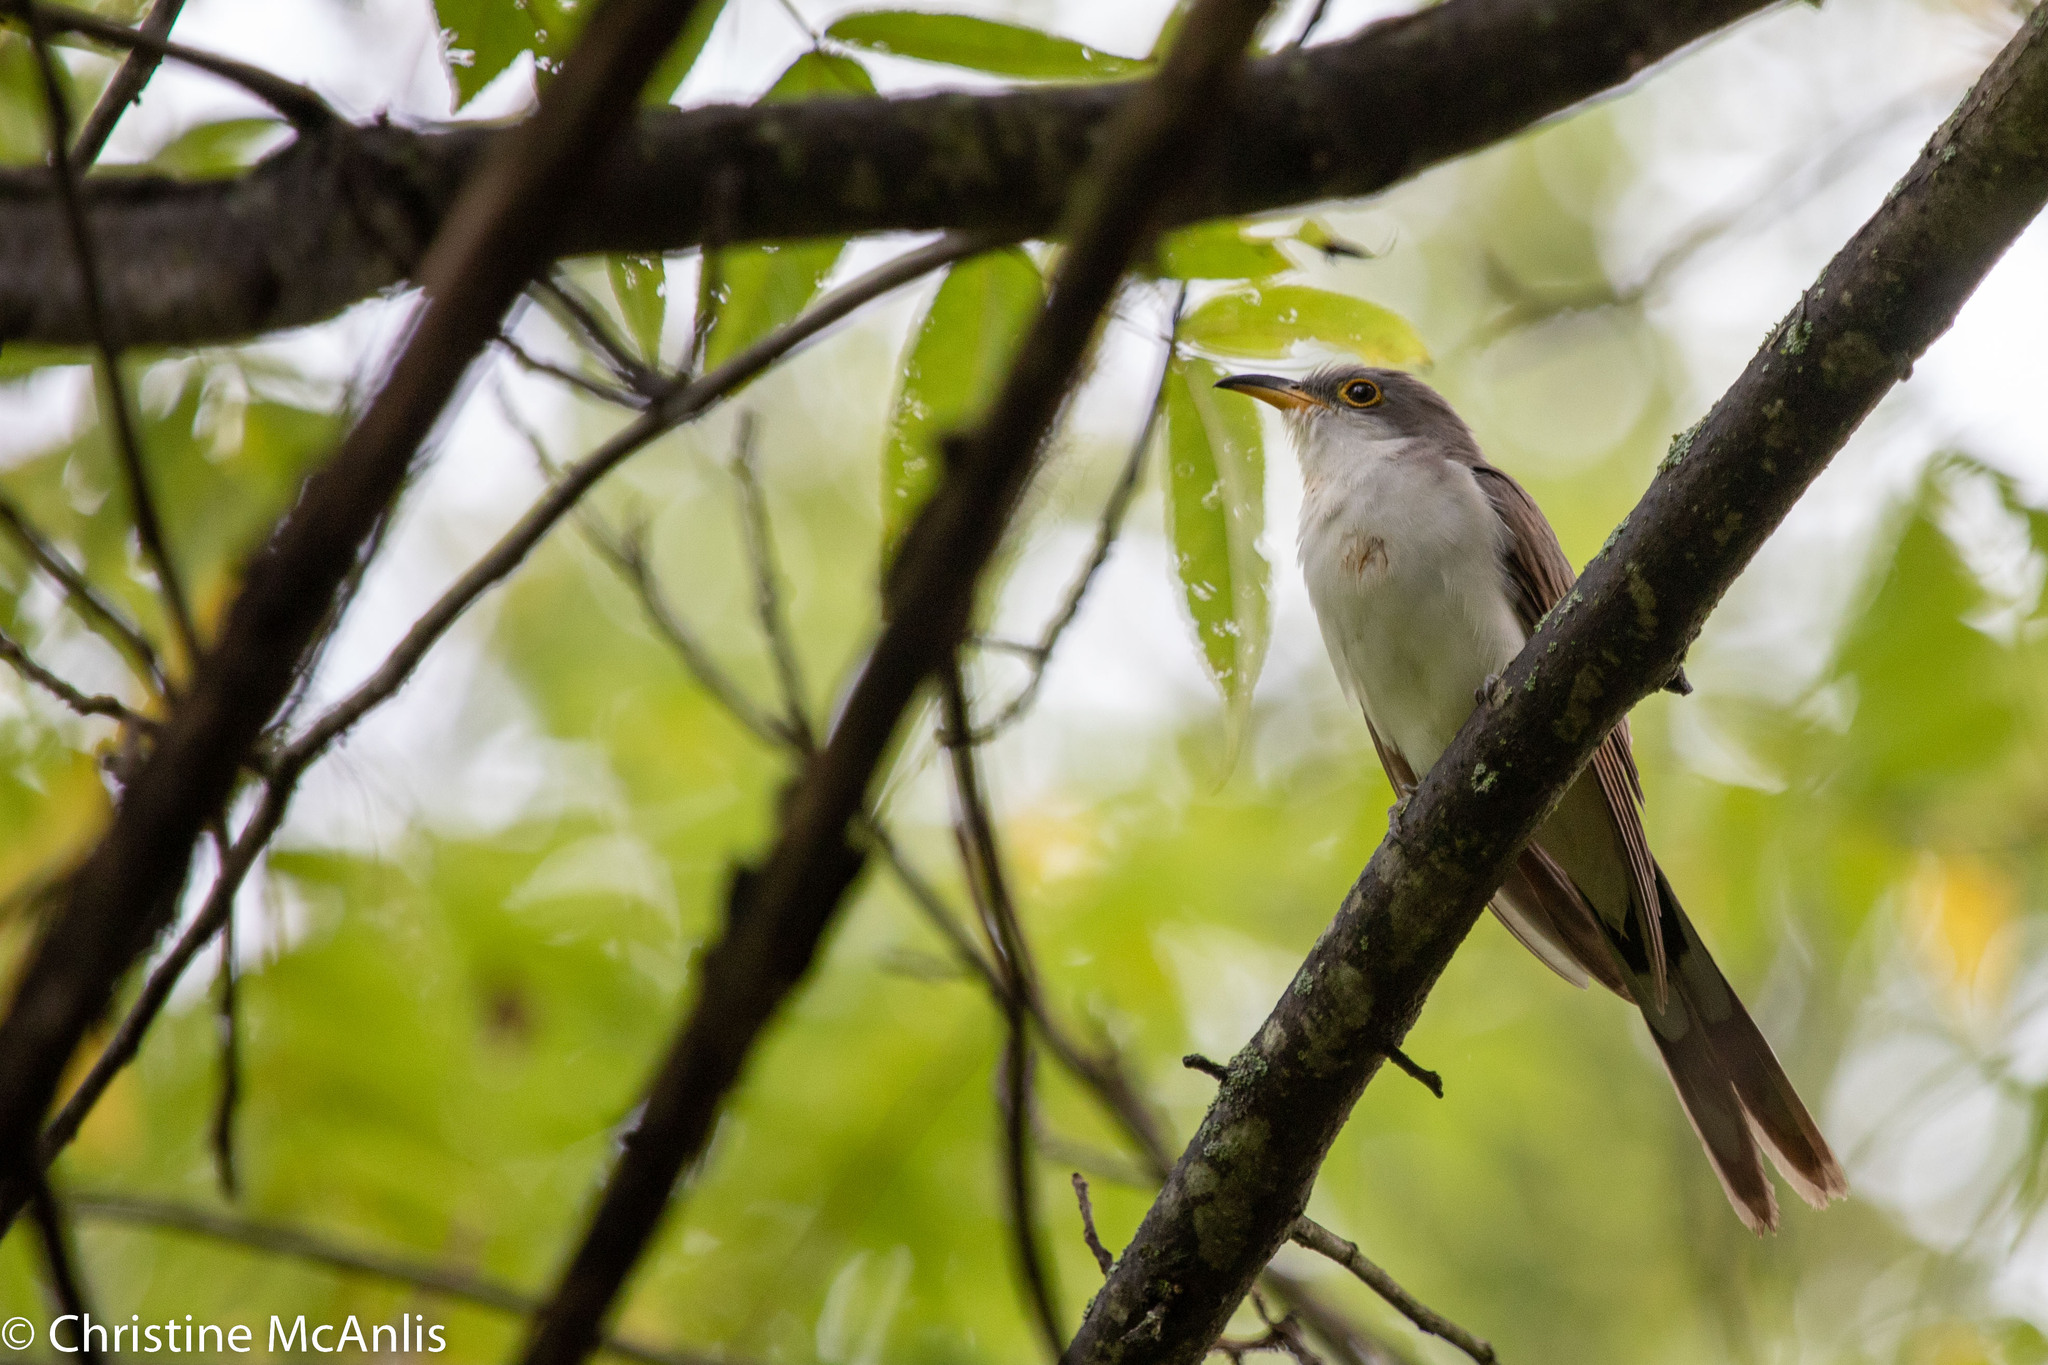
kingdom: Animalia
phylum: Chordata
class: Aves
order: Cuculiformes
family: Cuculidae
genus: Coccyzus
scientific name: Coccyzus americanus
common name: Yellow-billed cuckoo
